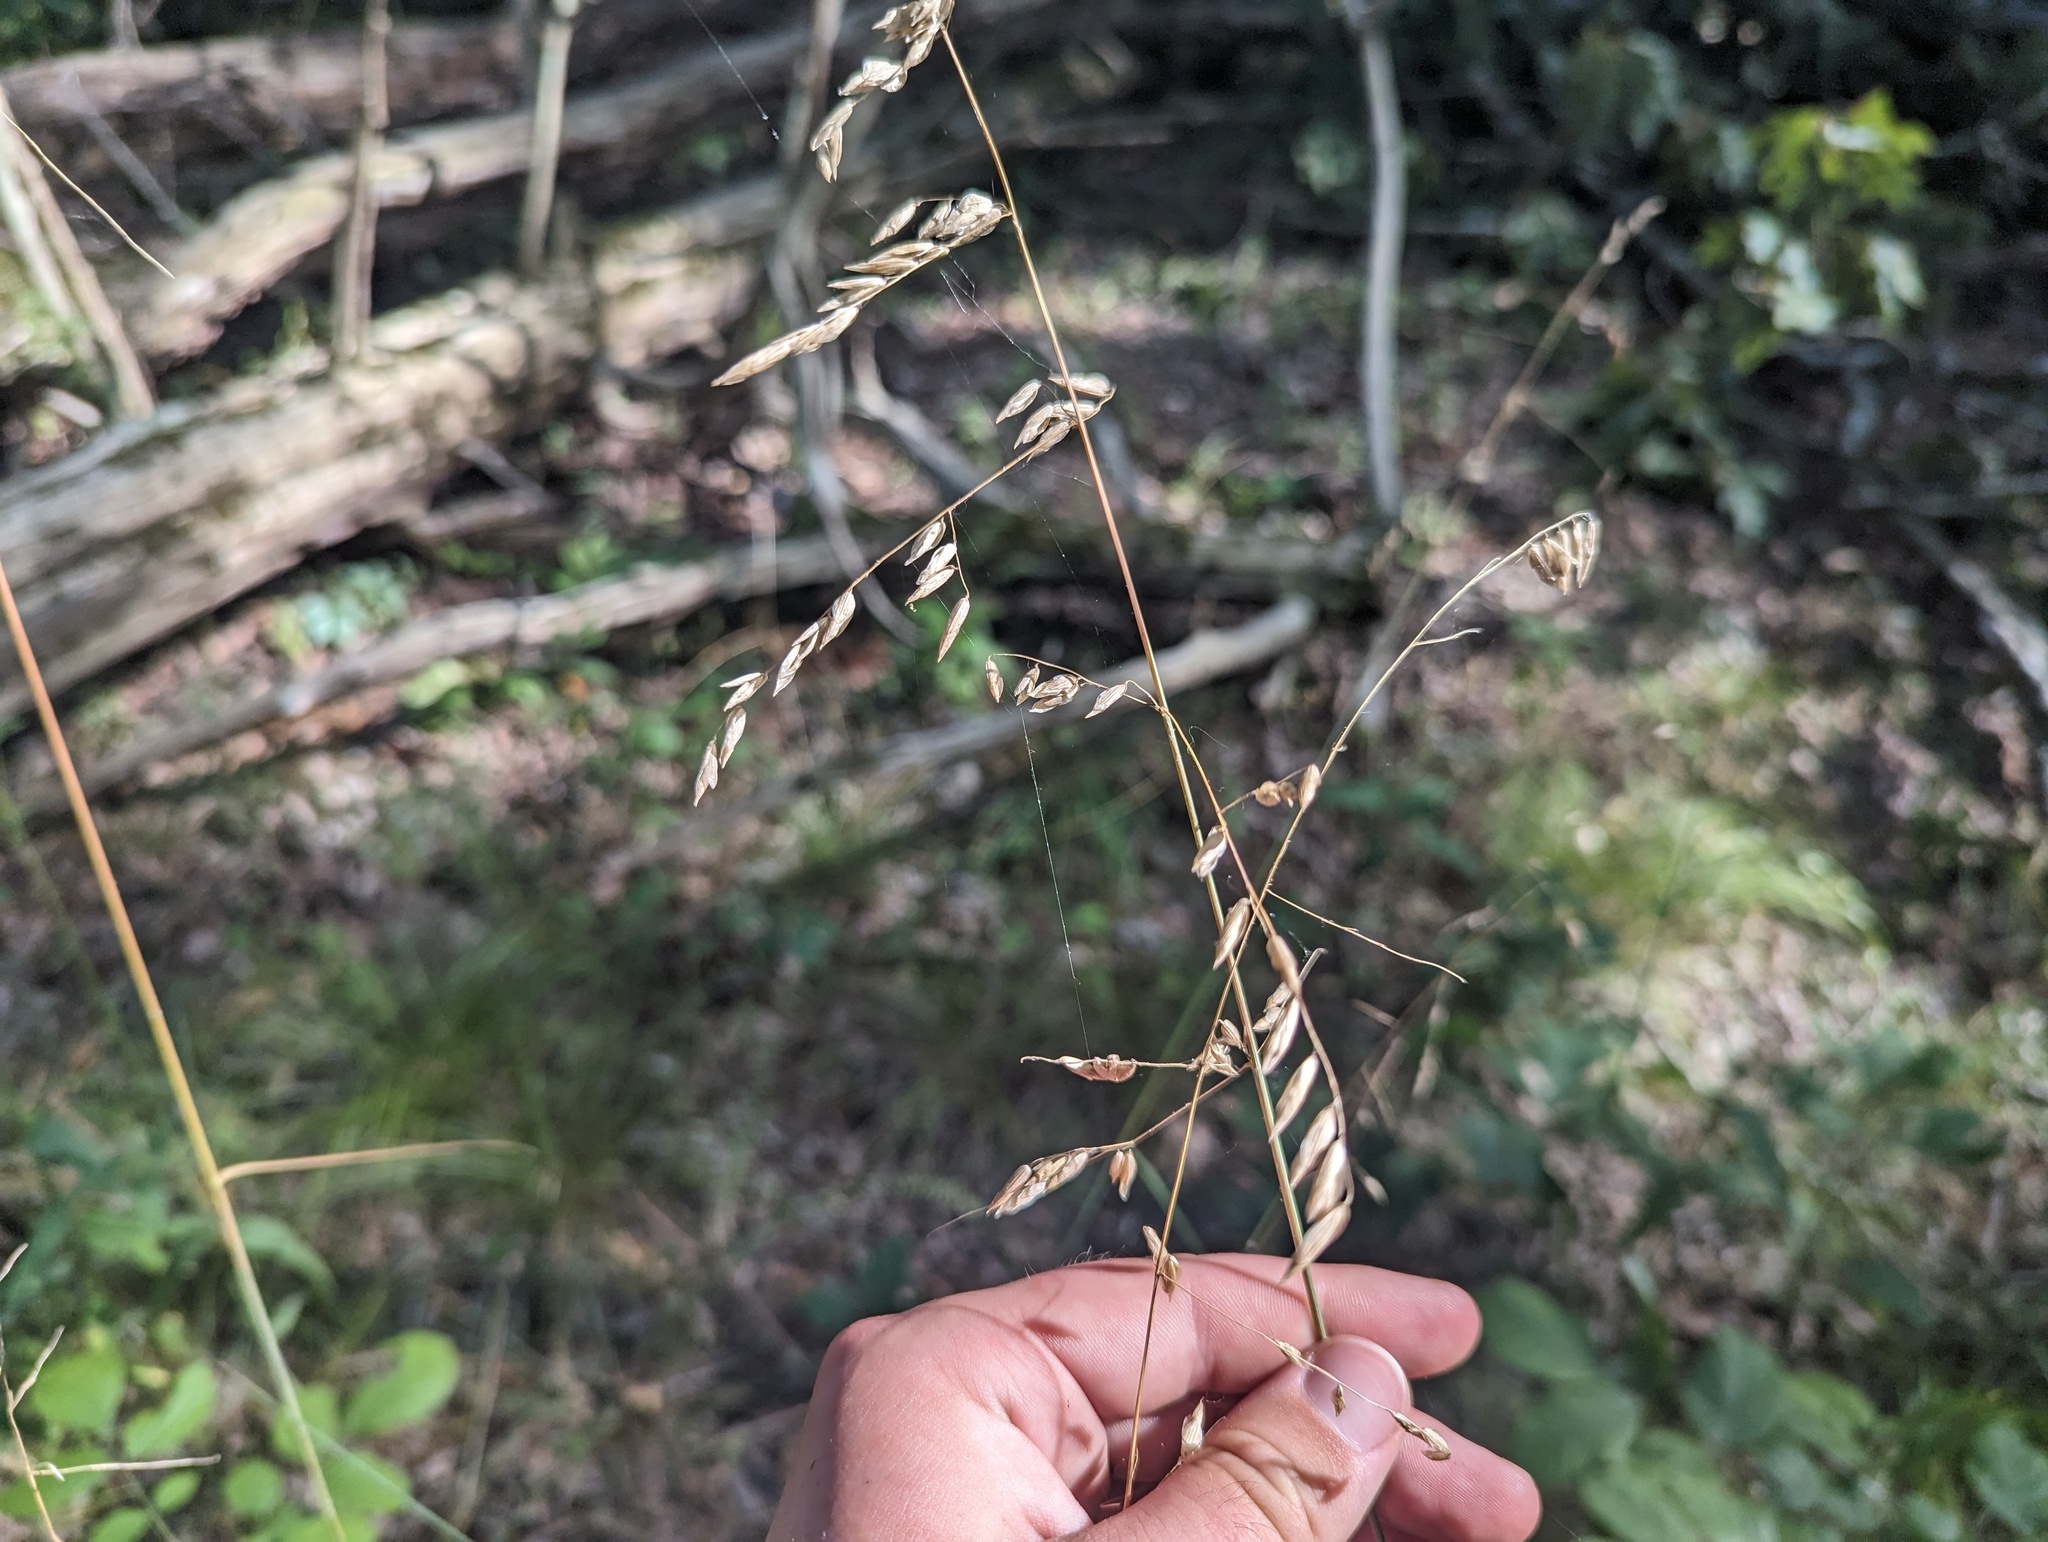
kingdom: Plantae
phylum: Tracheophyta
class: Liliopsida
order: Poales
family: Poaceae
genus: Melica
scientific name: Melica nitens
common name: Three-flower melic
